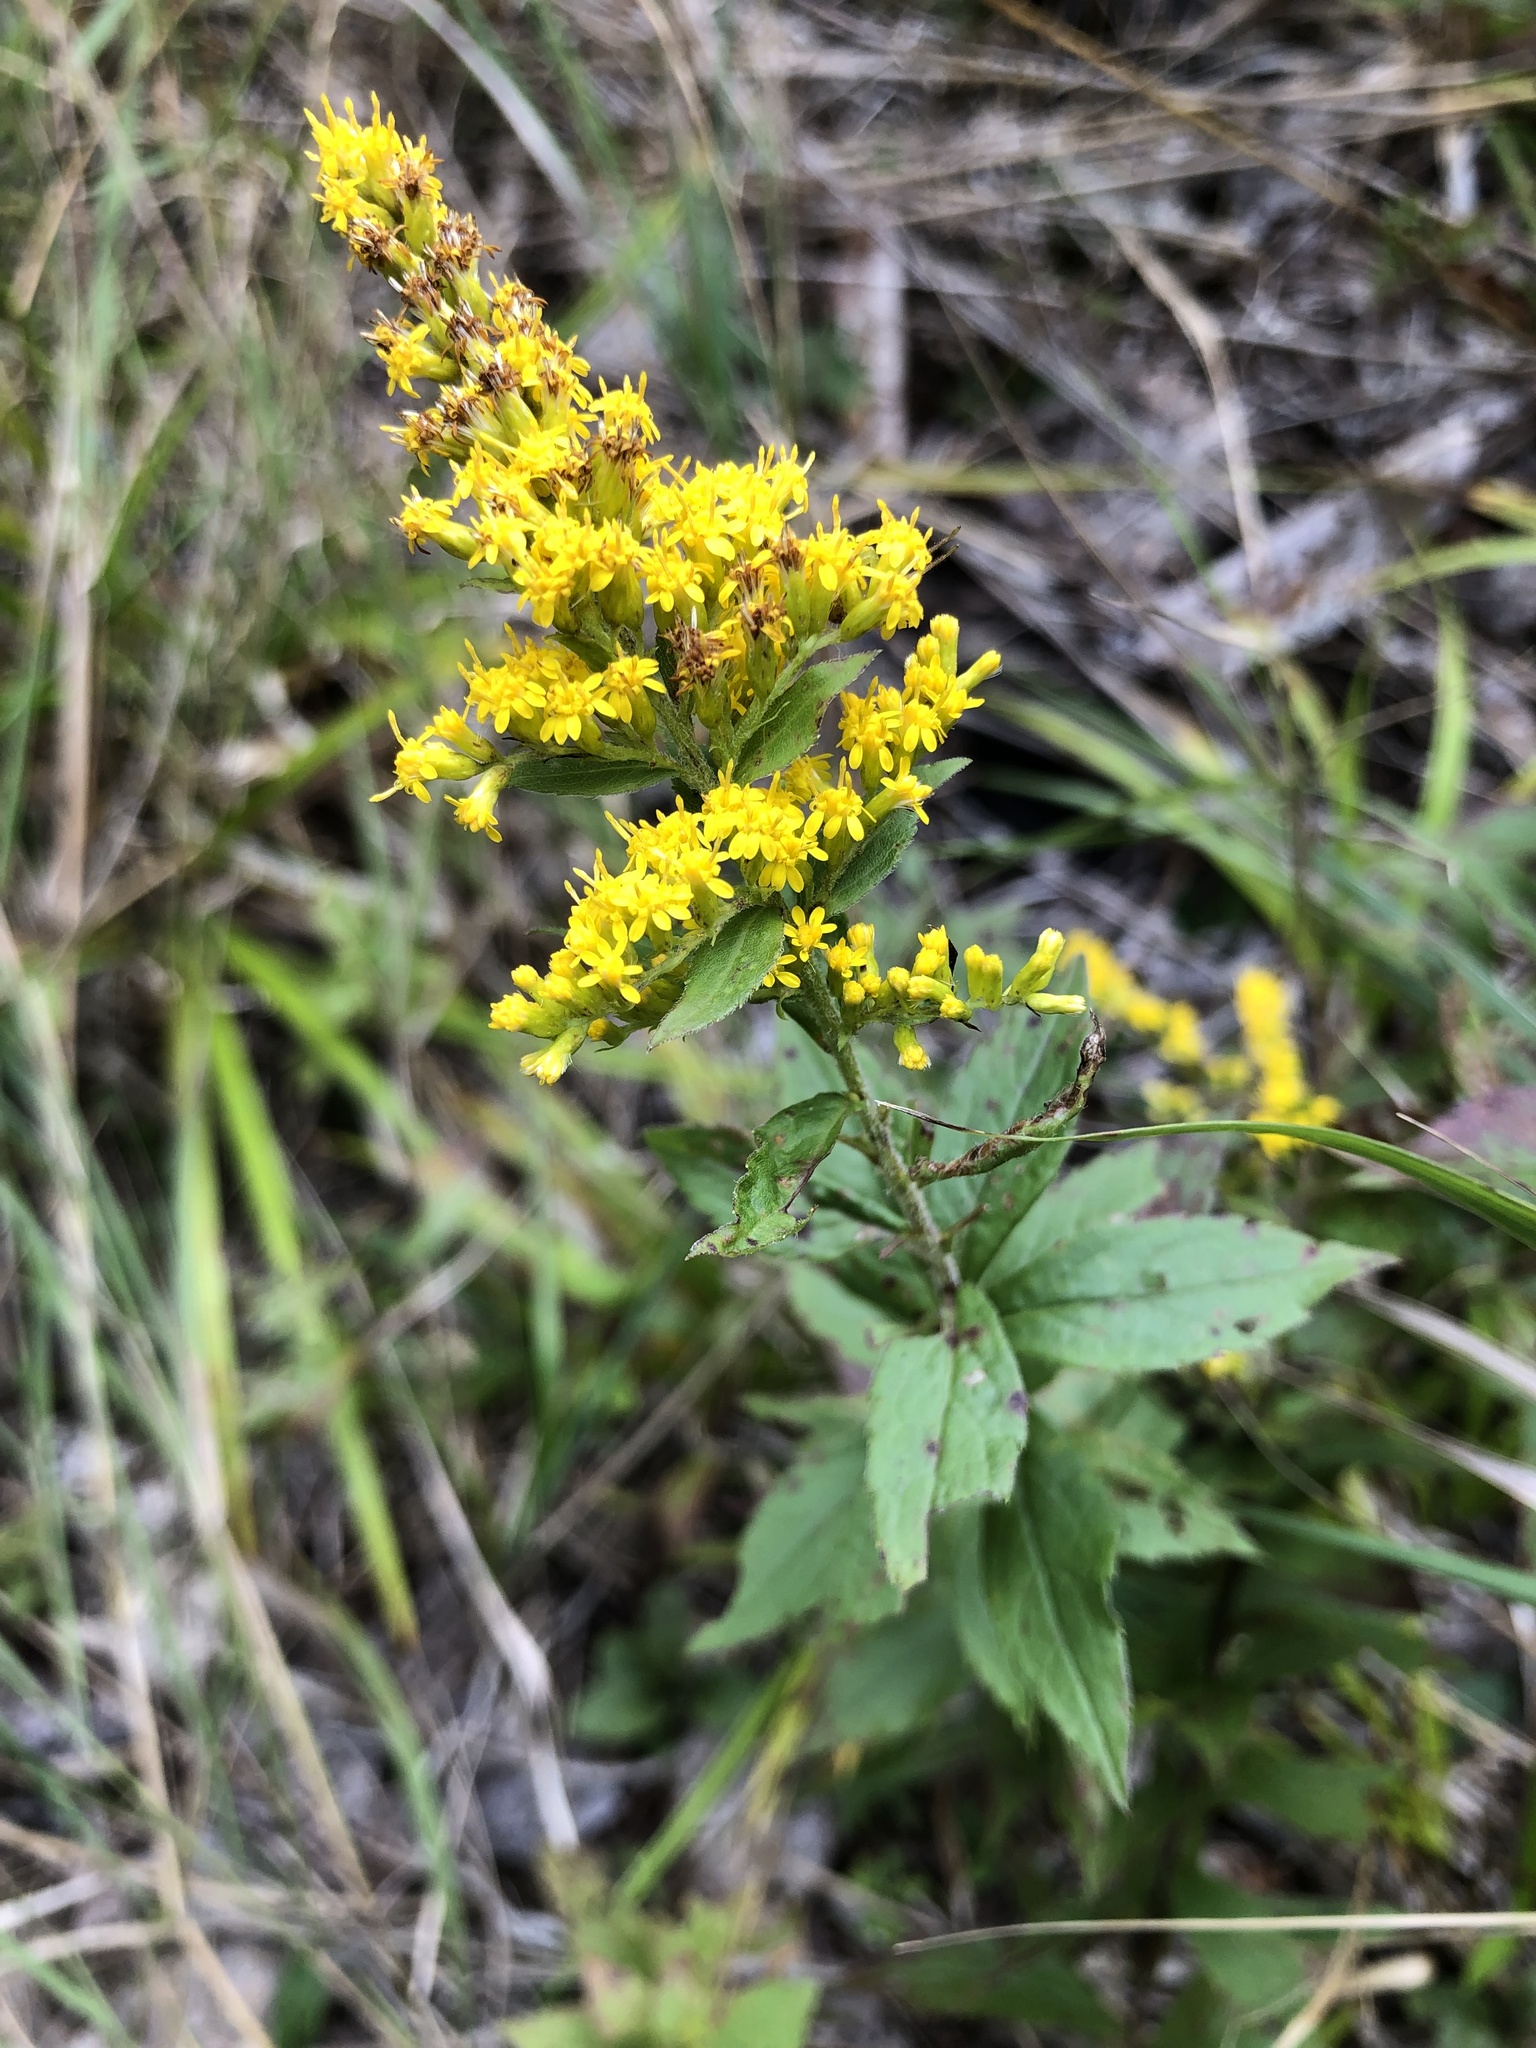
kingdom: Plantae
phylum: Tracheophyta
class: Magnoliopsida
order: Asterales
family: Asteraceae
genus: Solidago
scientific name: Solidago rugosa
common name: Rough-stemmed goldenrod
